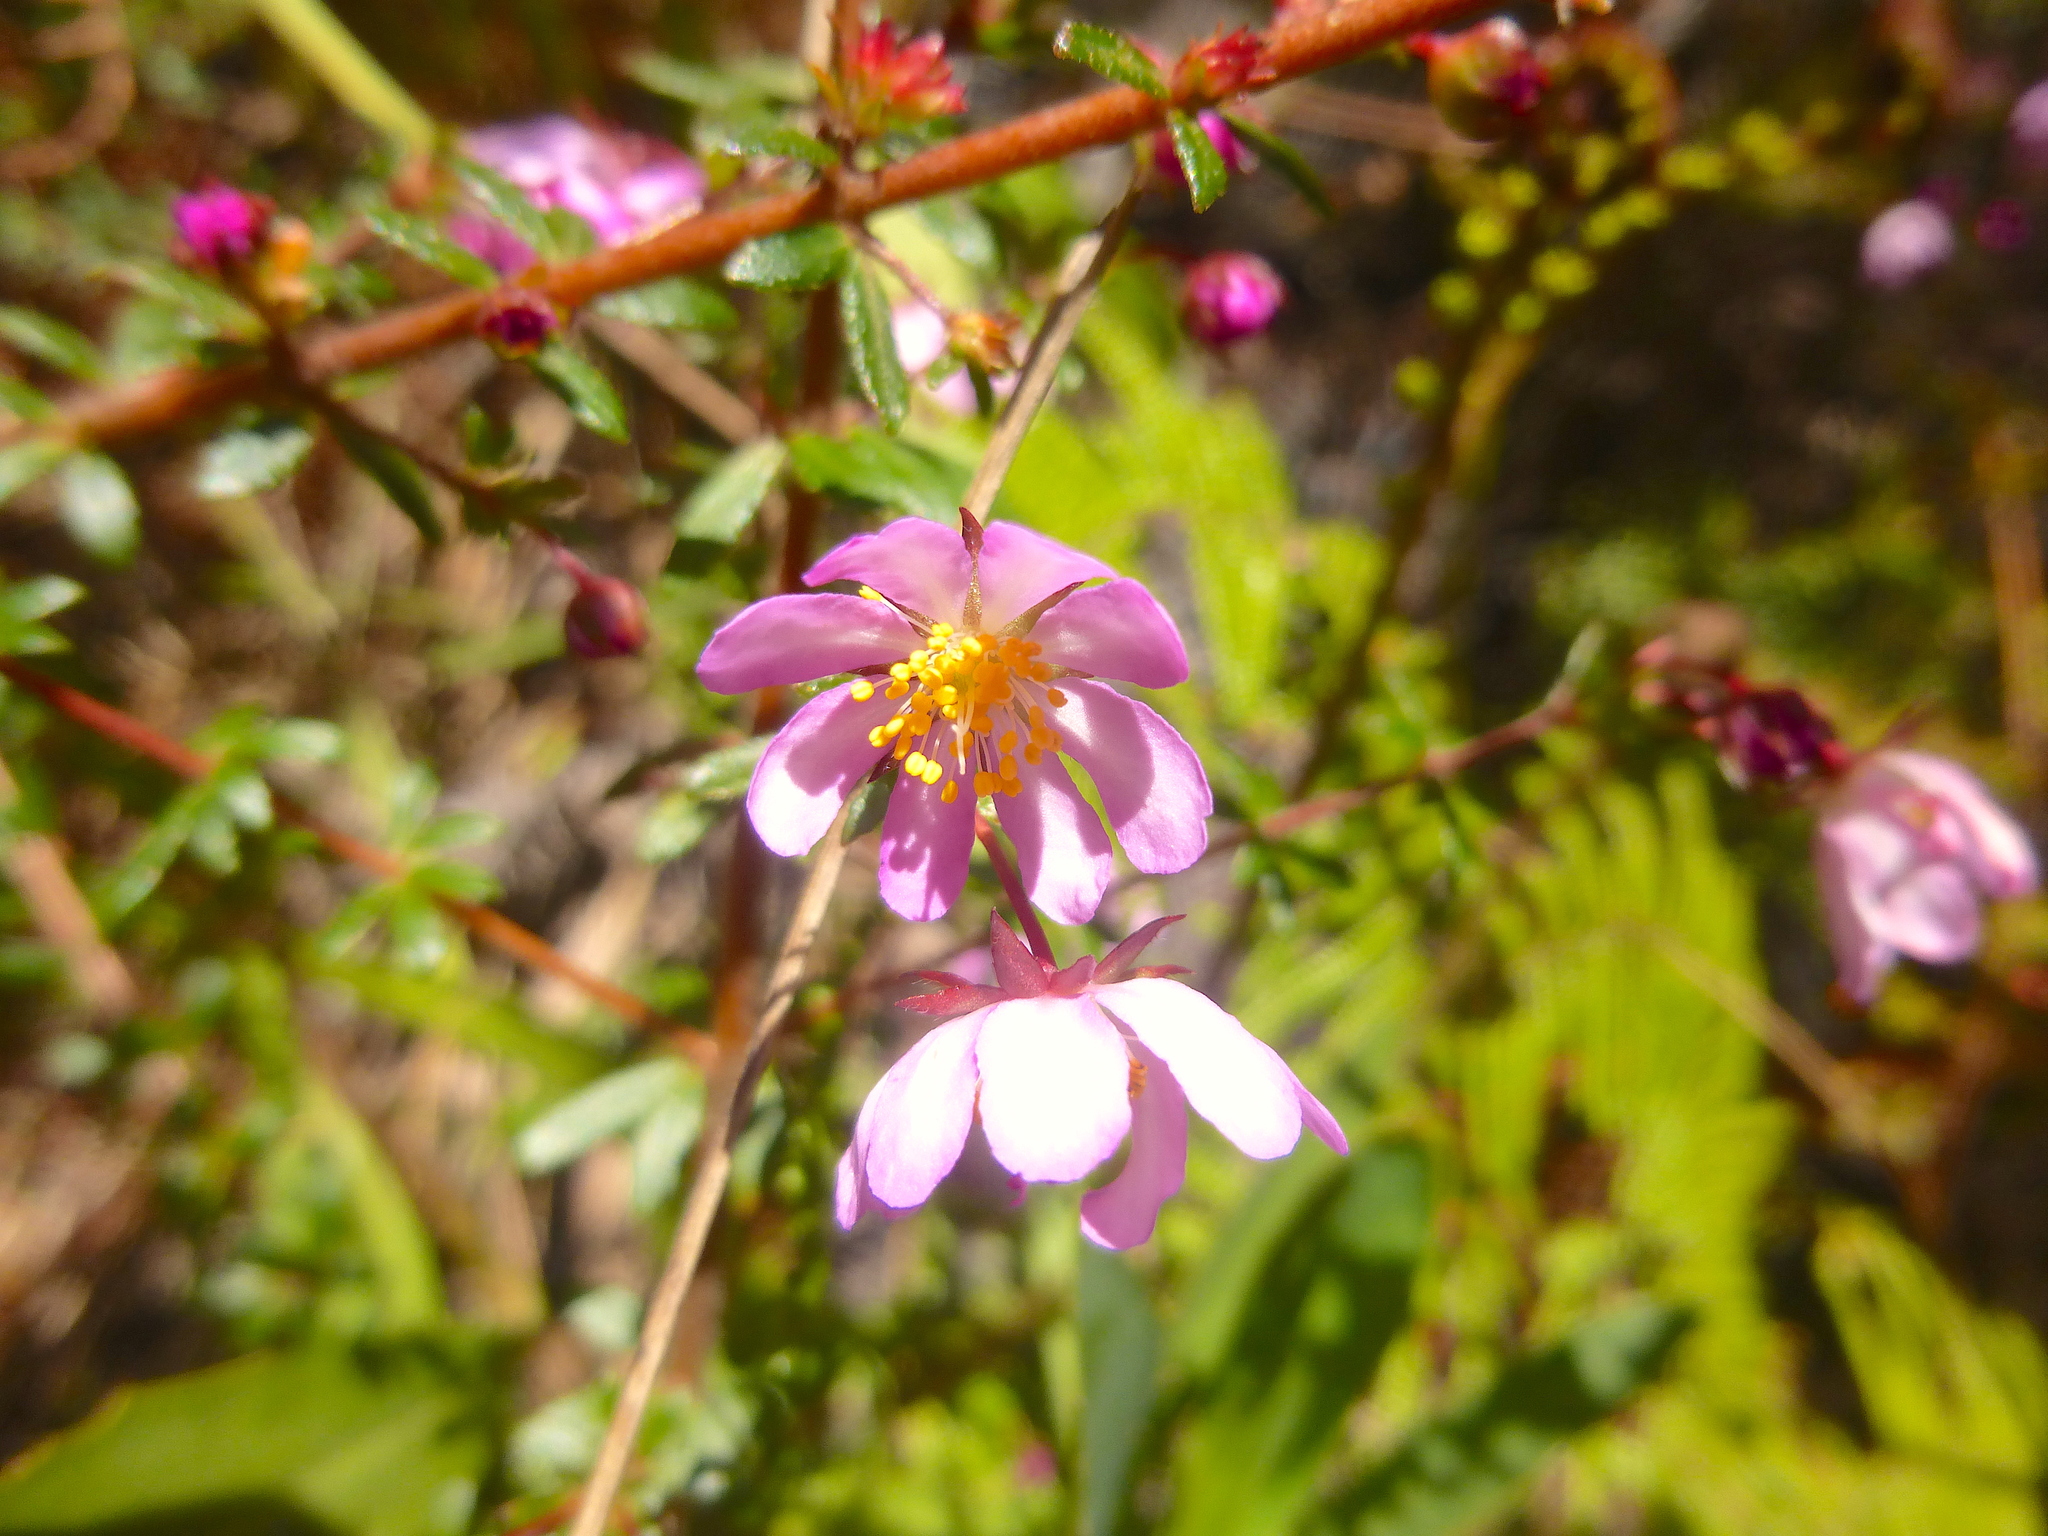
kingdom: Plantae
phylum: Tracheophyta
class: Magnoliopsida
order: Oxalidales
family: Cunoniaceae
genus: Bauera
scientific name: Bauera rubioides
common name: River-rose
